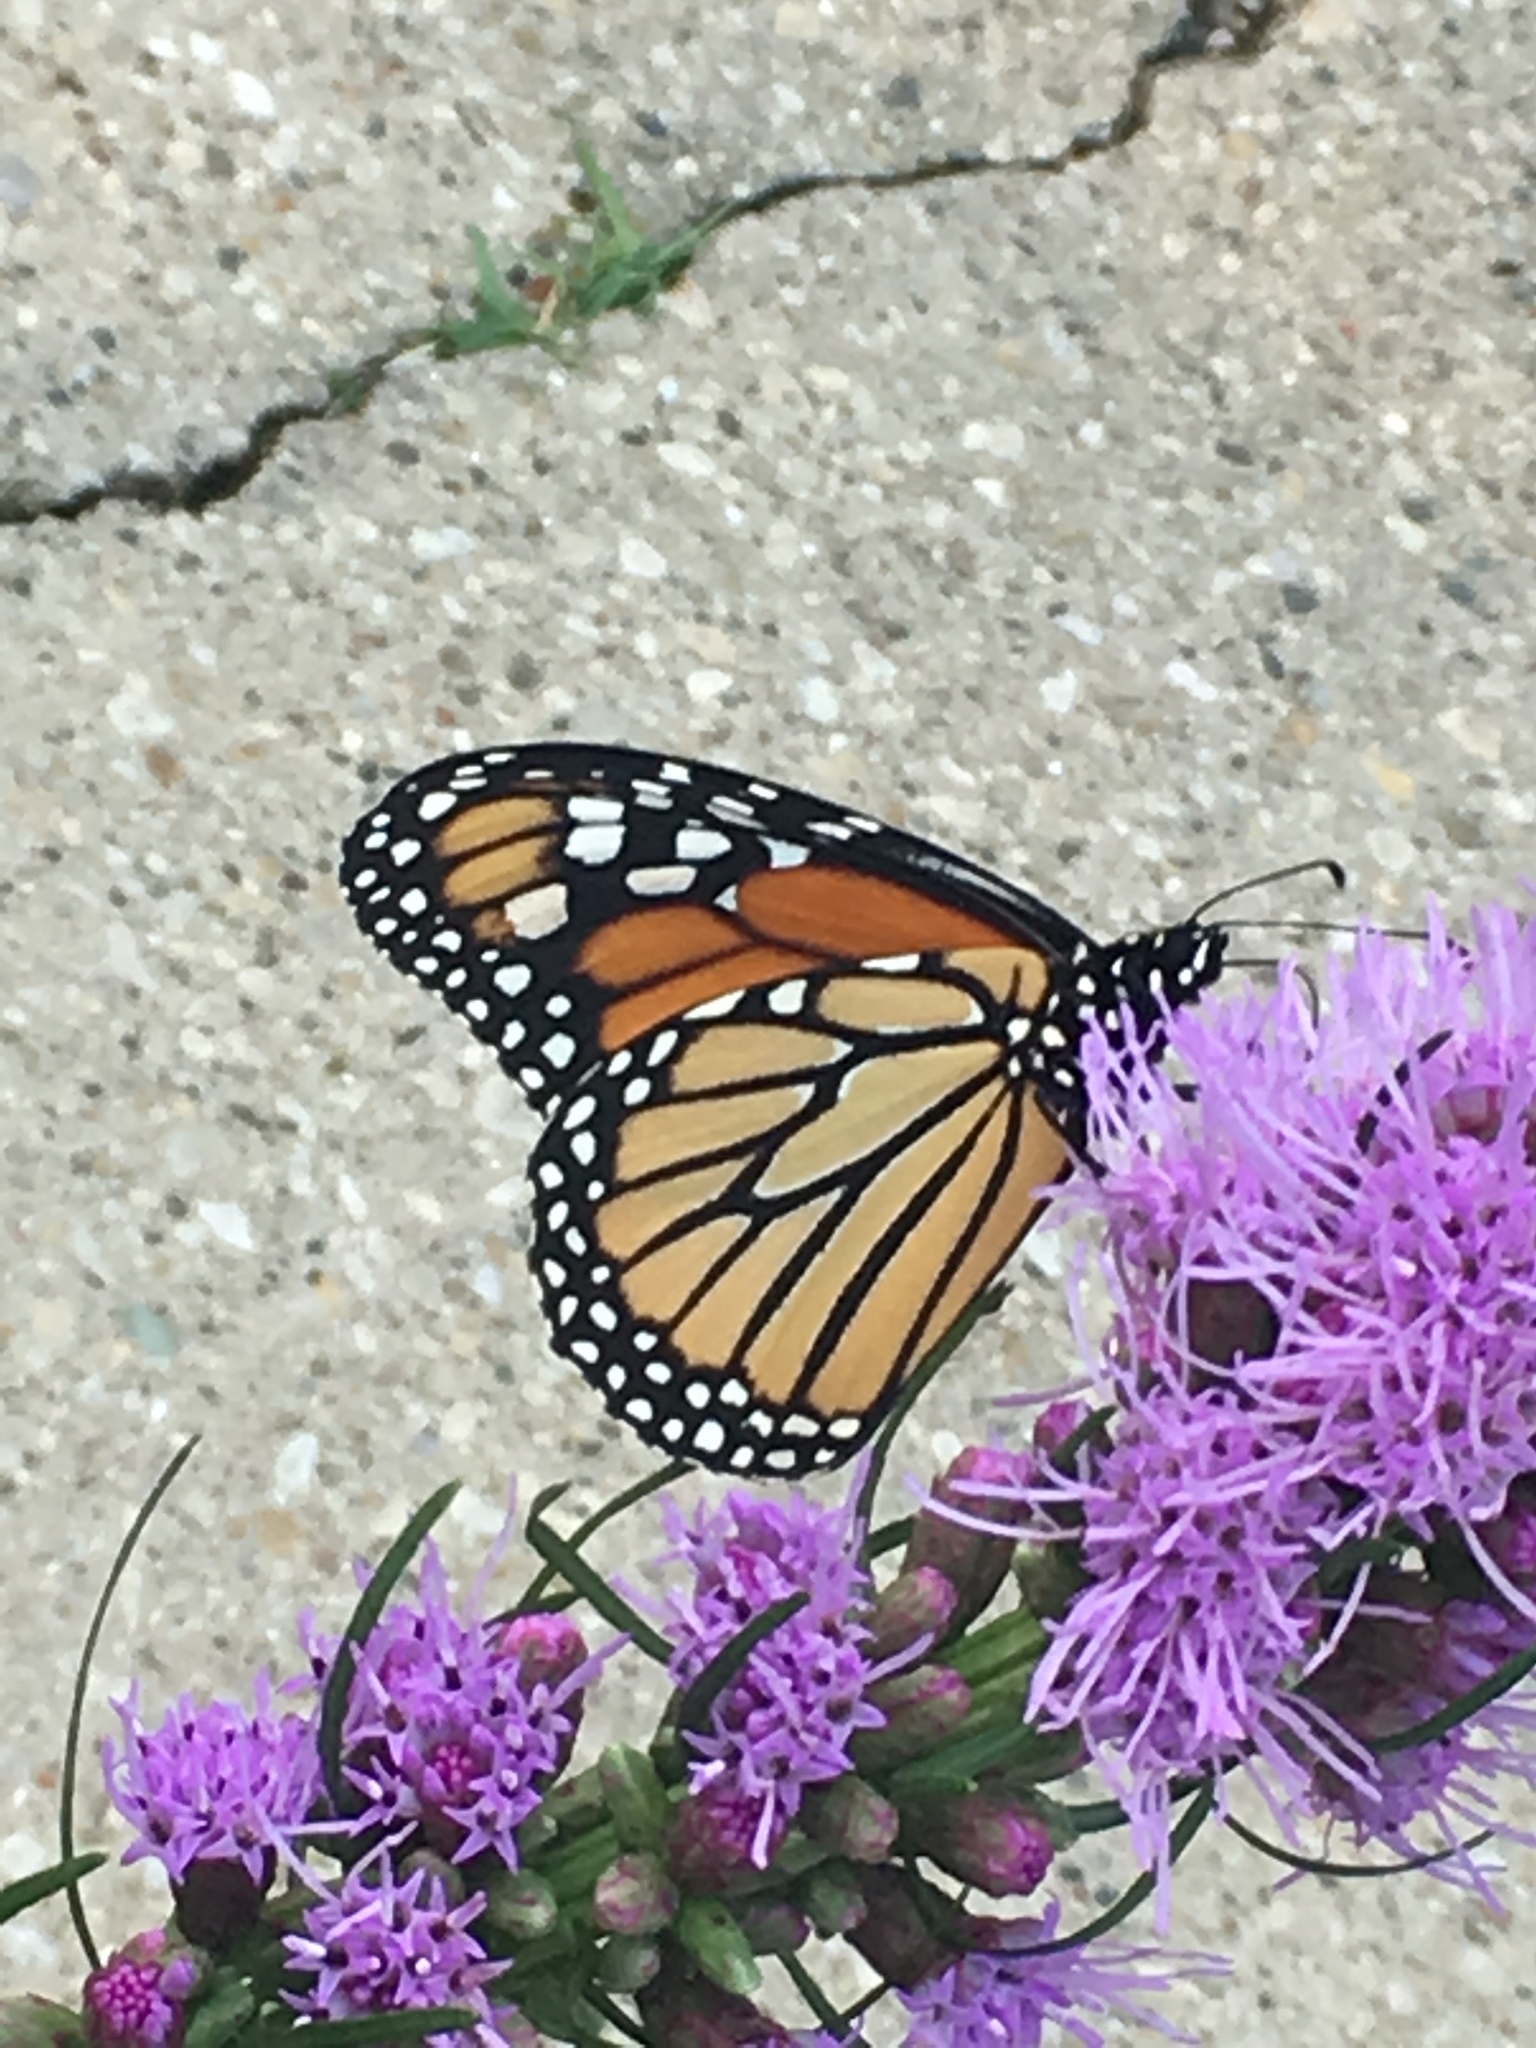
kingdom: Animalia
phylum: Arthropoda
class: Insecta
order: Lepidoptera
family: Nymphalidae
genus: Danaus
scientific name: Danaus plexippus
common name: Monarch
